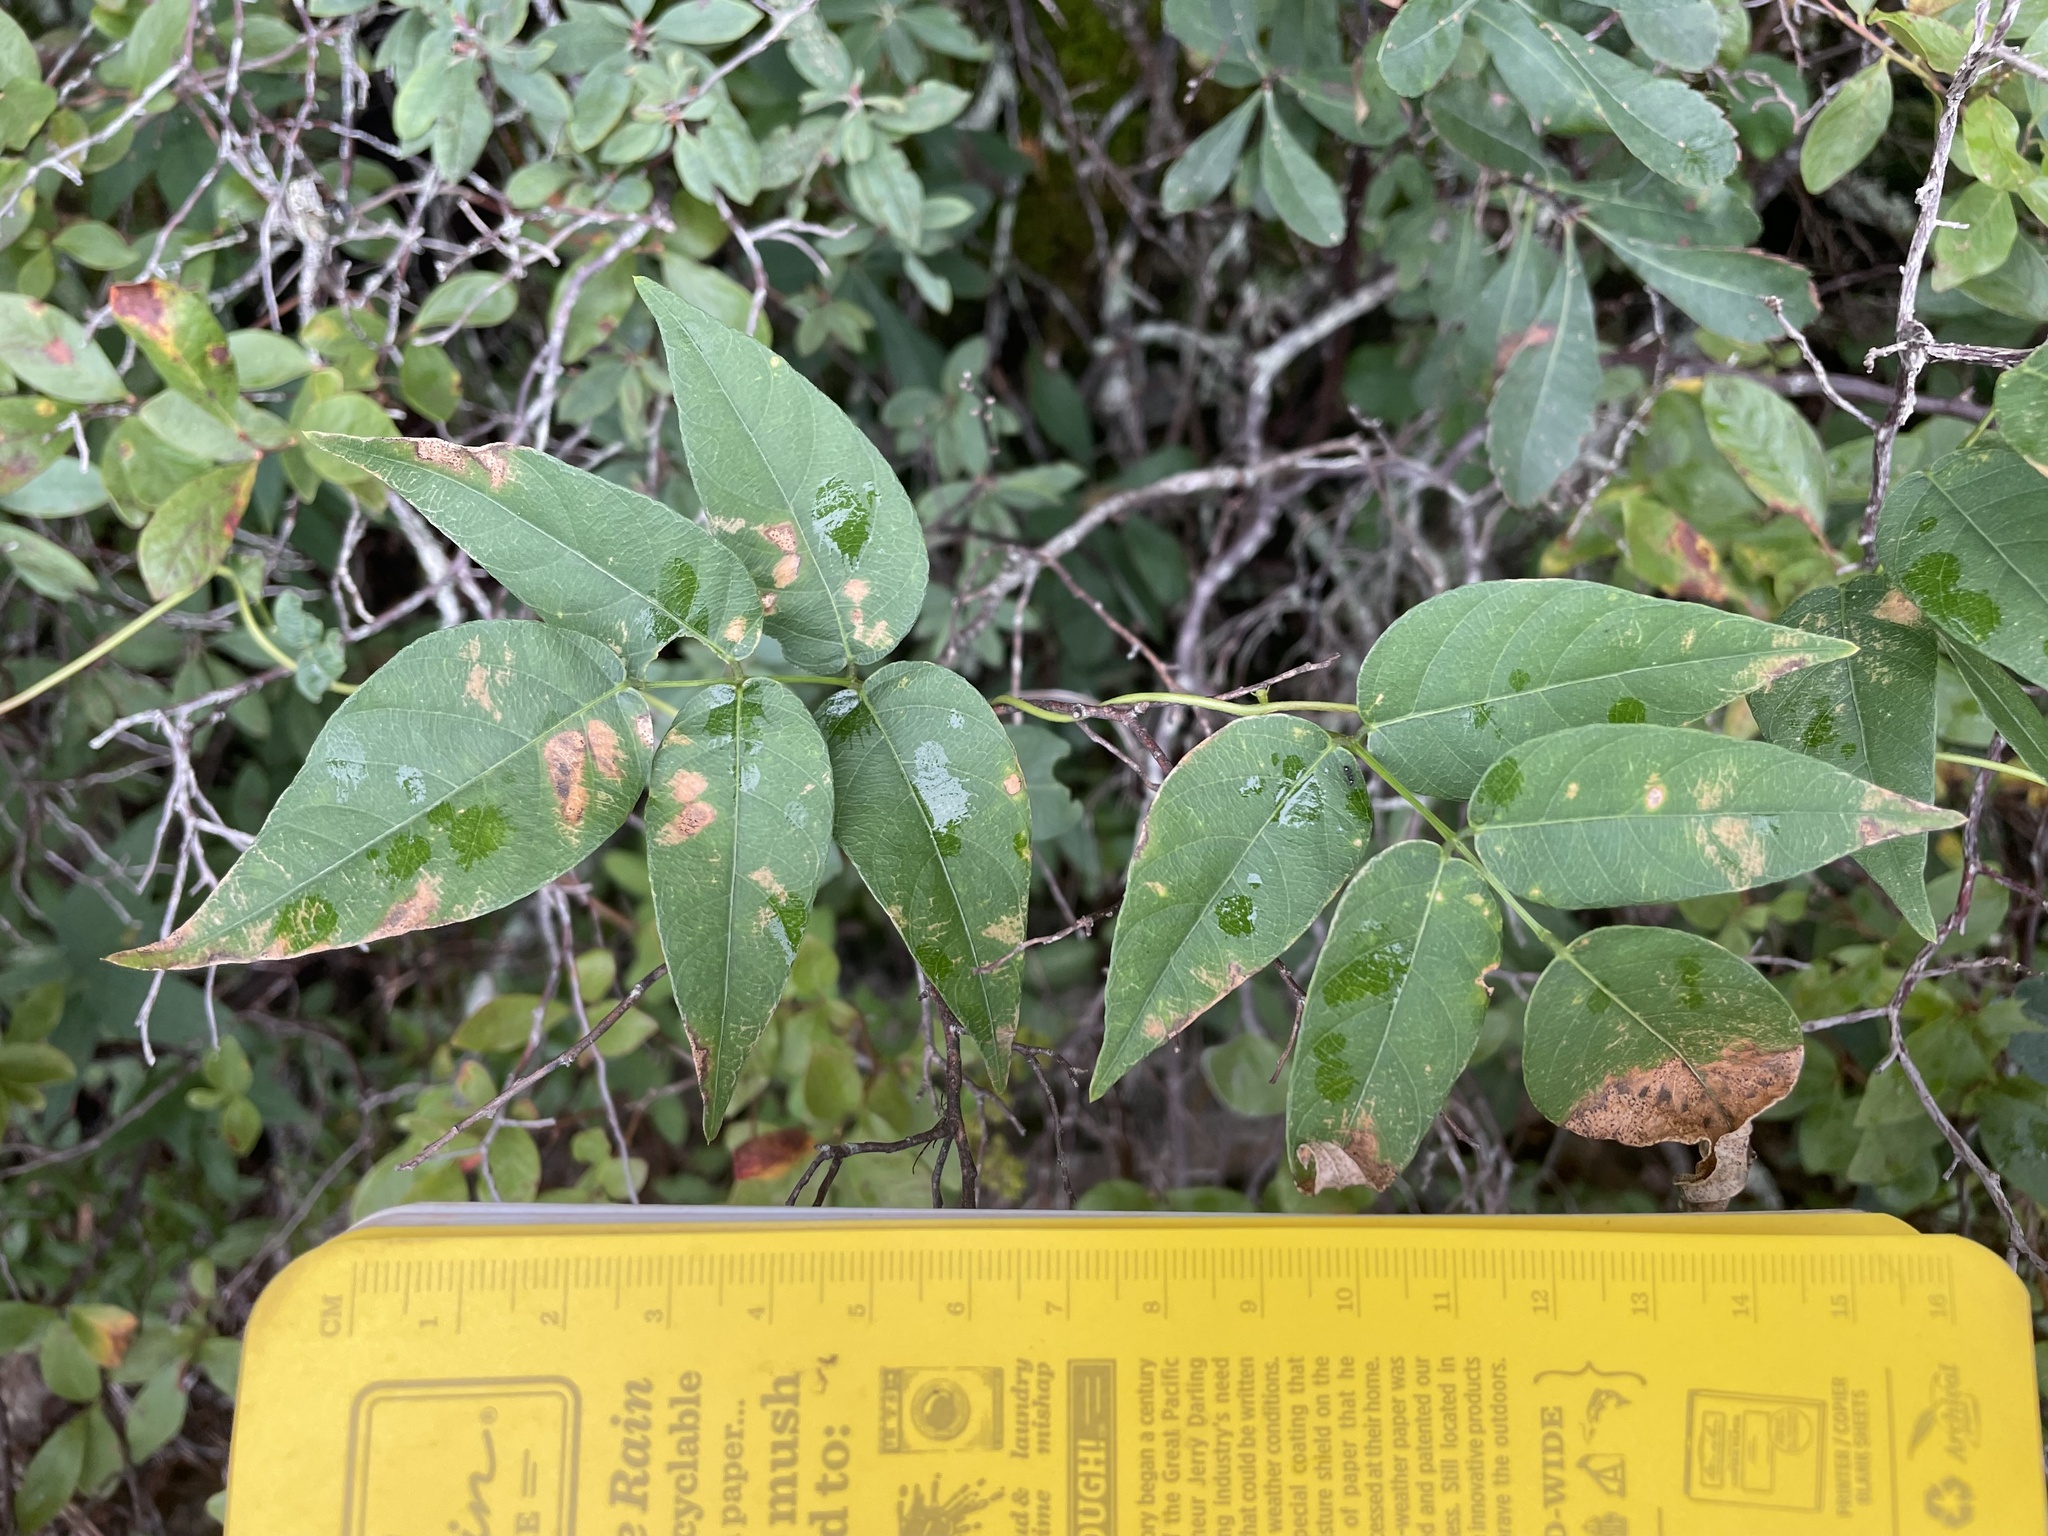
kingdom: Plantae
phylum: Tracheophyta
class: Magnoliopsida
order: Fabales
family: Fabaceae
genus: Apios
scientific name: Apios americana
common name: American potato-bean
